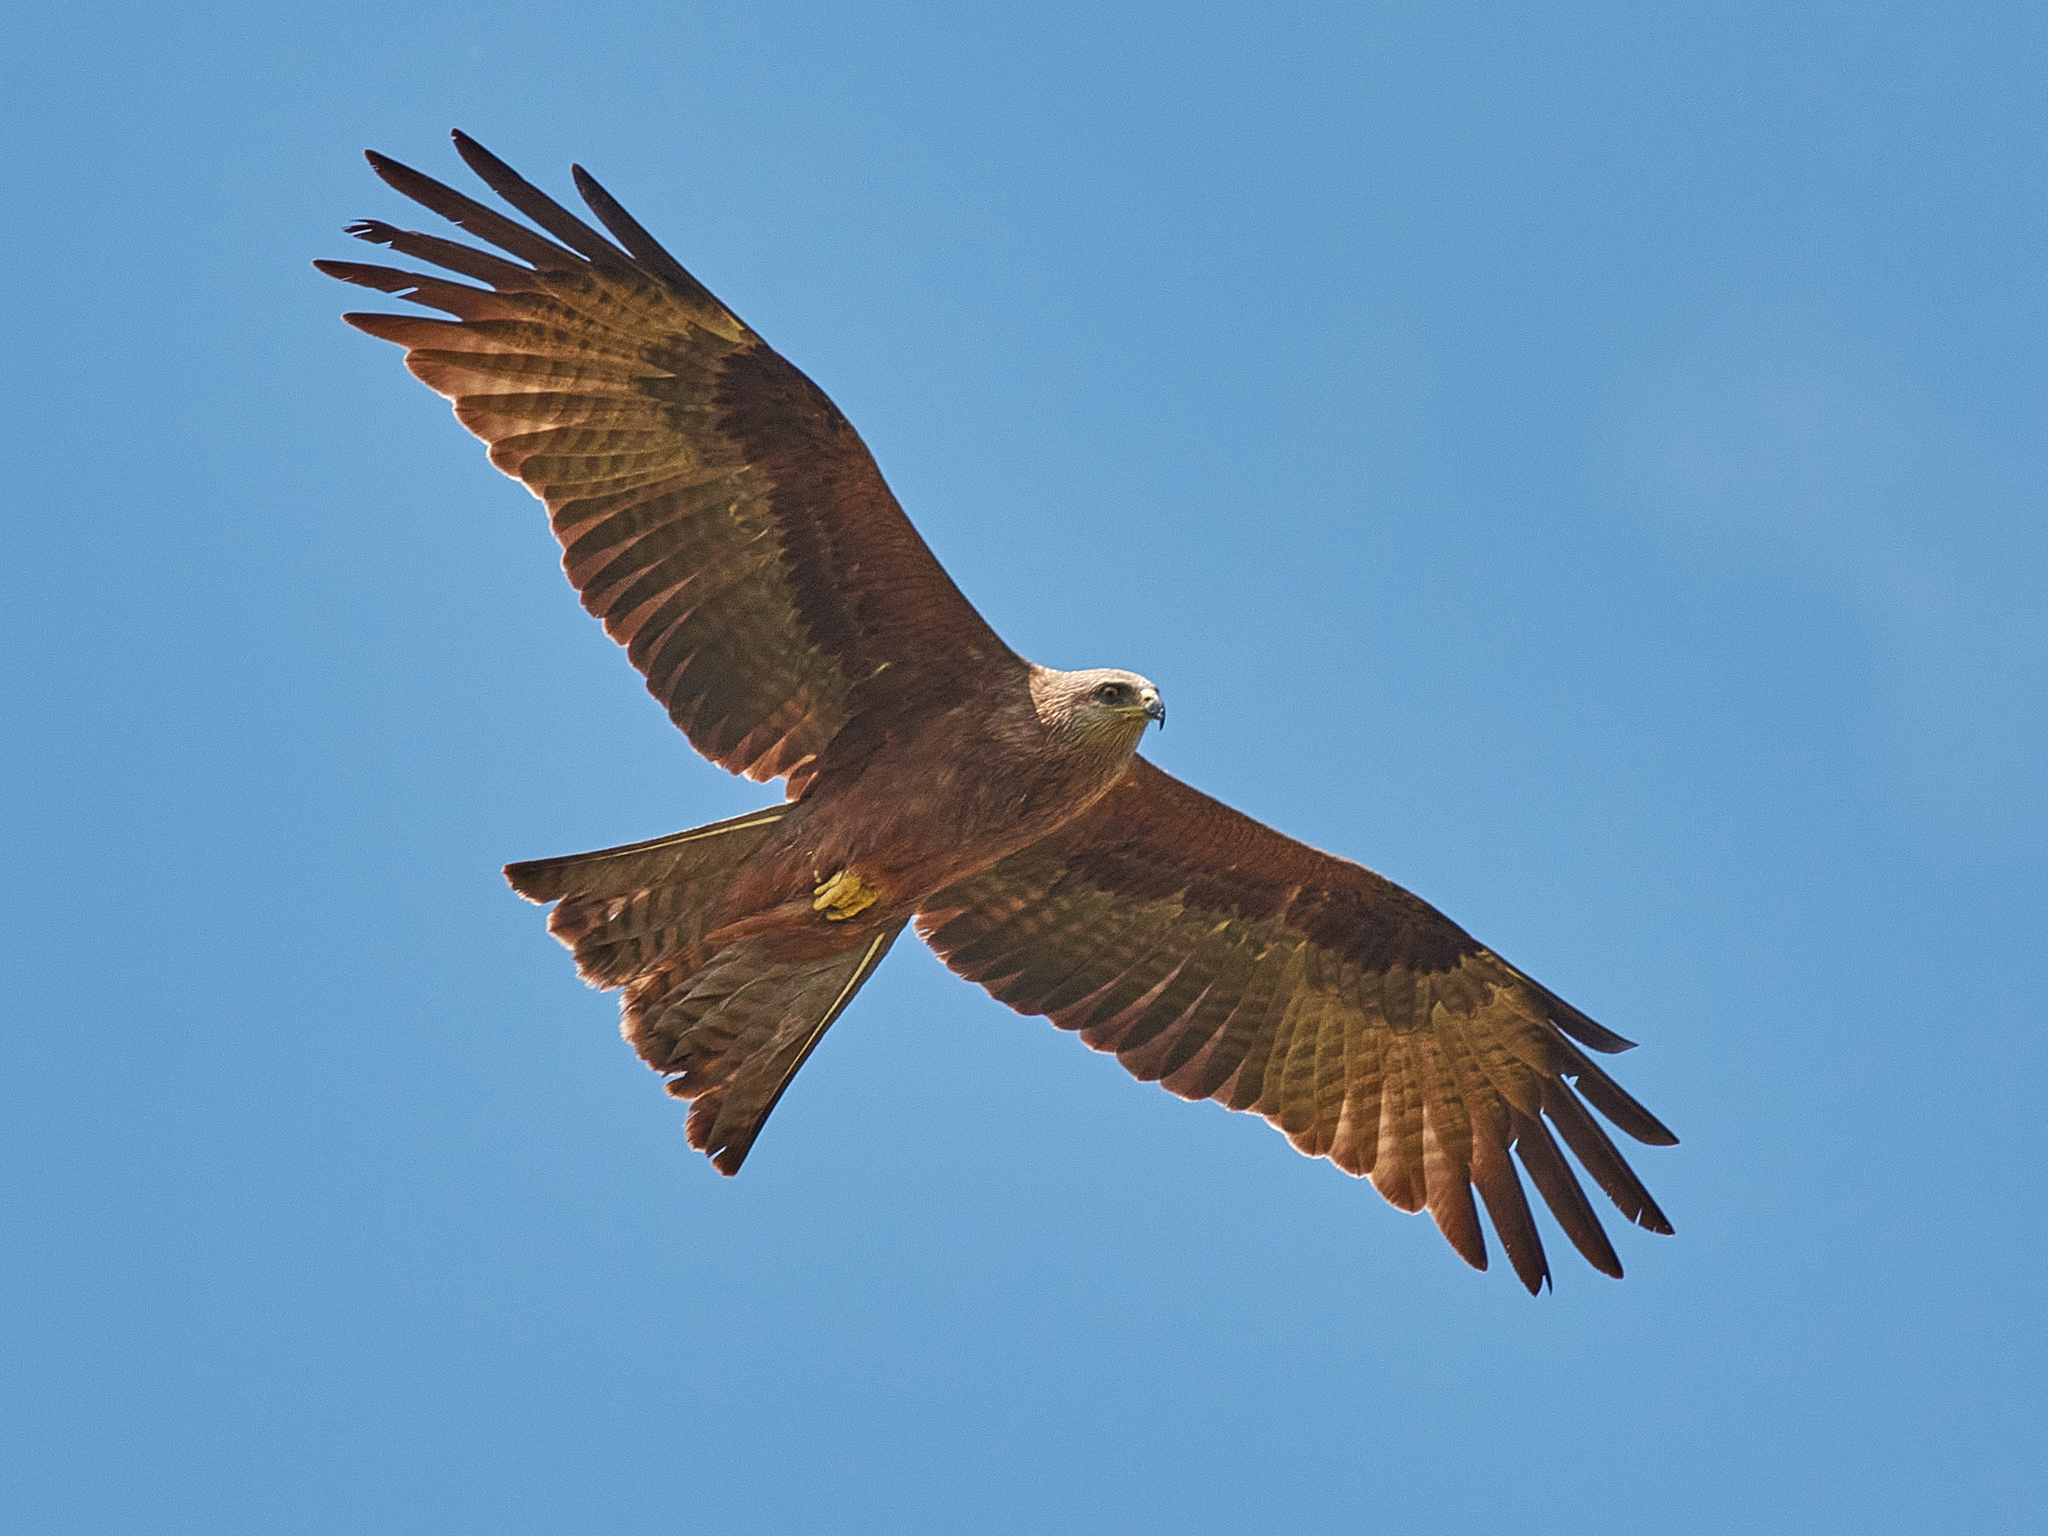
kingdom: Animalia
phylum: Chordata
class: Aves
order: Accipitriformes
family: Accipitridae
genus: Milvus
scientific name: Milvus migrans
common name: Black kite
